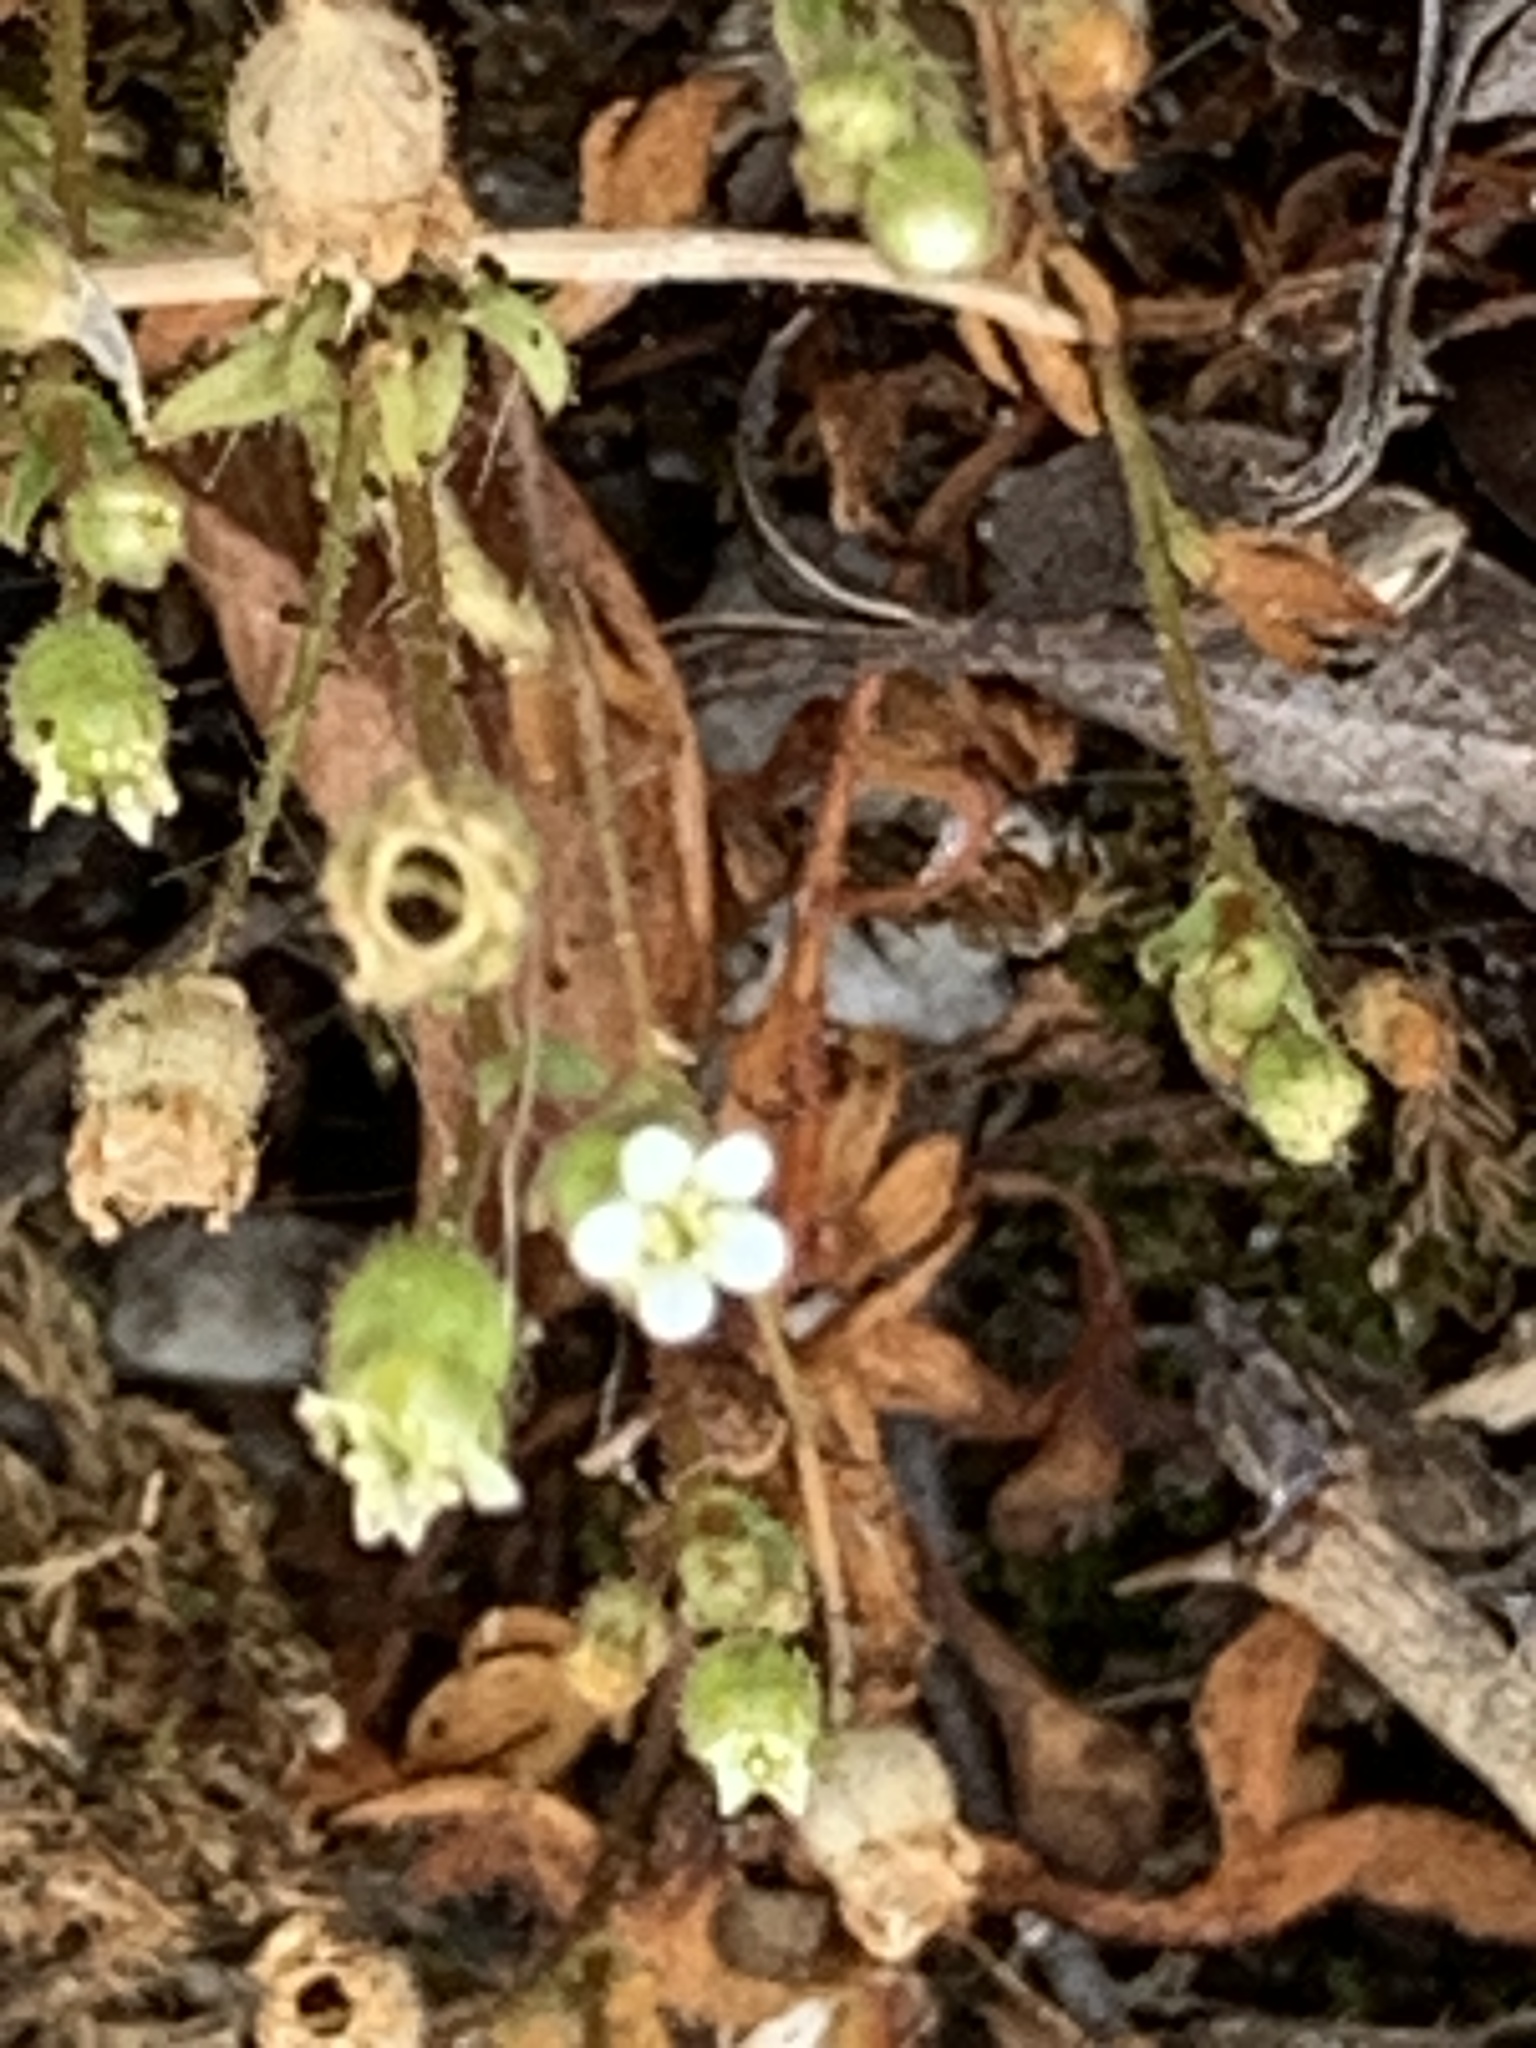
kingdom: Plantae
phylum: Tracheophyta
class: Magnoliopsida
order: Saxifragales
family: Saxifragaceae
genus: Saxifraga
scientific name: Saxifraga tridactylites
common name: Rue-leaved saxifrage
